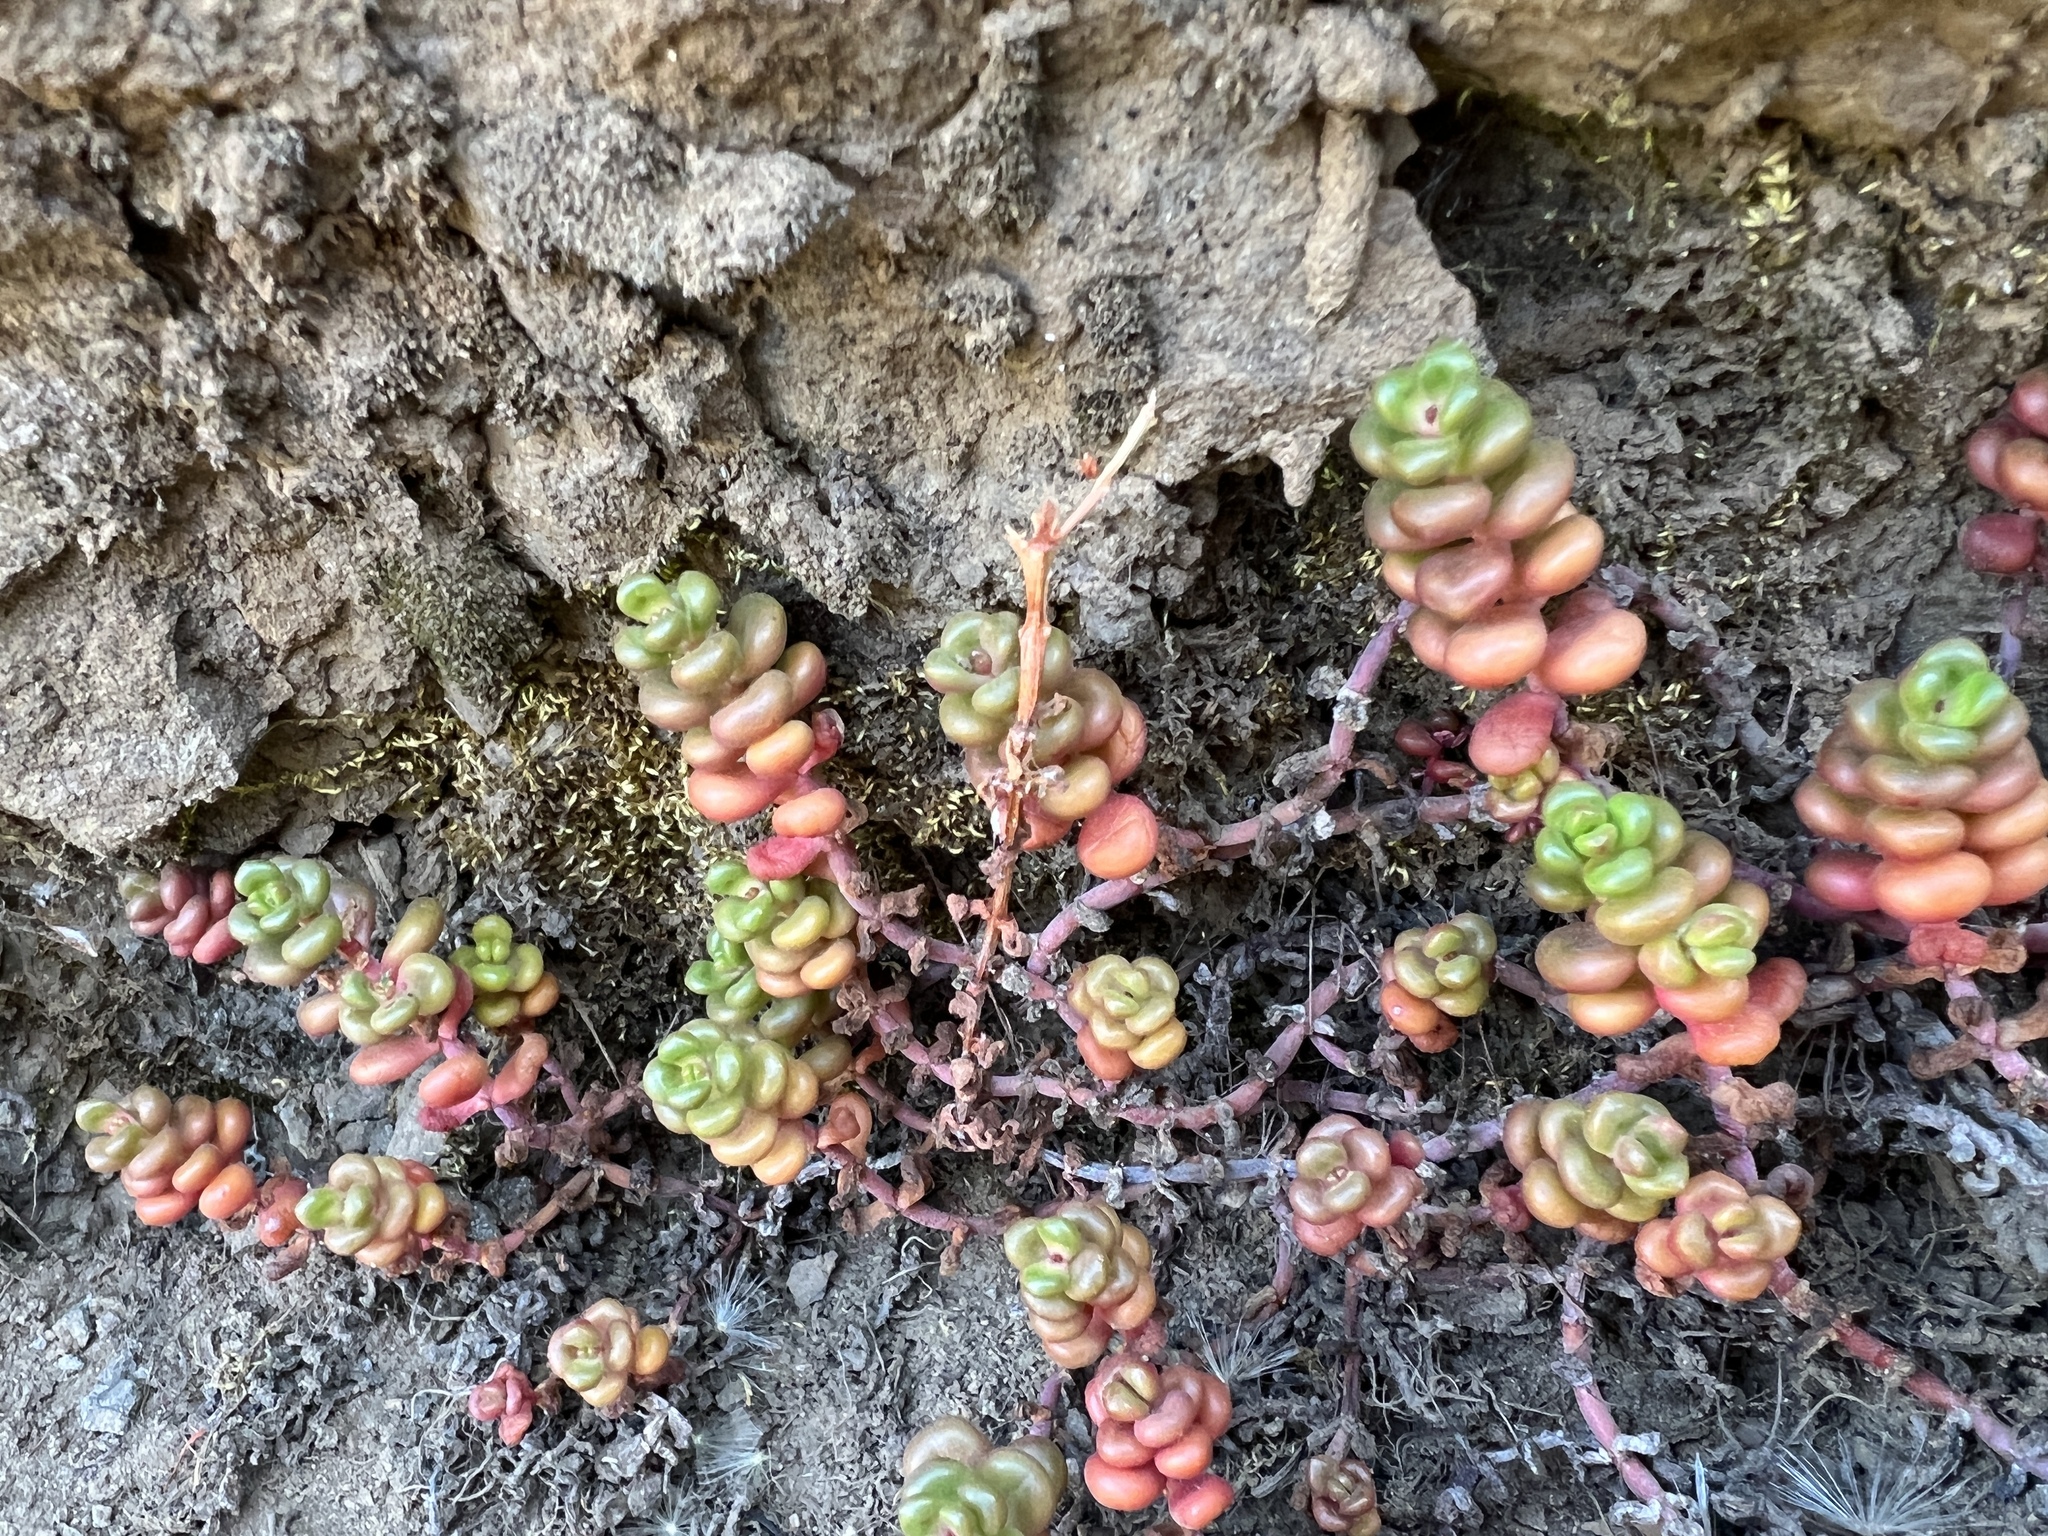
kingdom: Plantae
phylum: Tracheophyta
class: Magnoliopsida
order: Saxifragales
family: Crassulaceae
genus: Sedum
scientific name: Sedum divergens
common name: Cascade stonecrop
